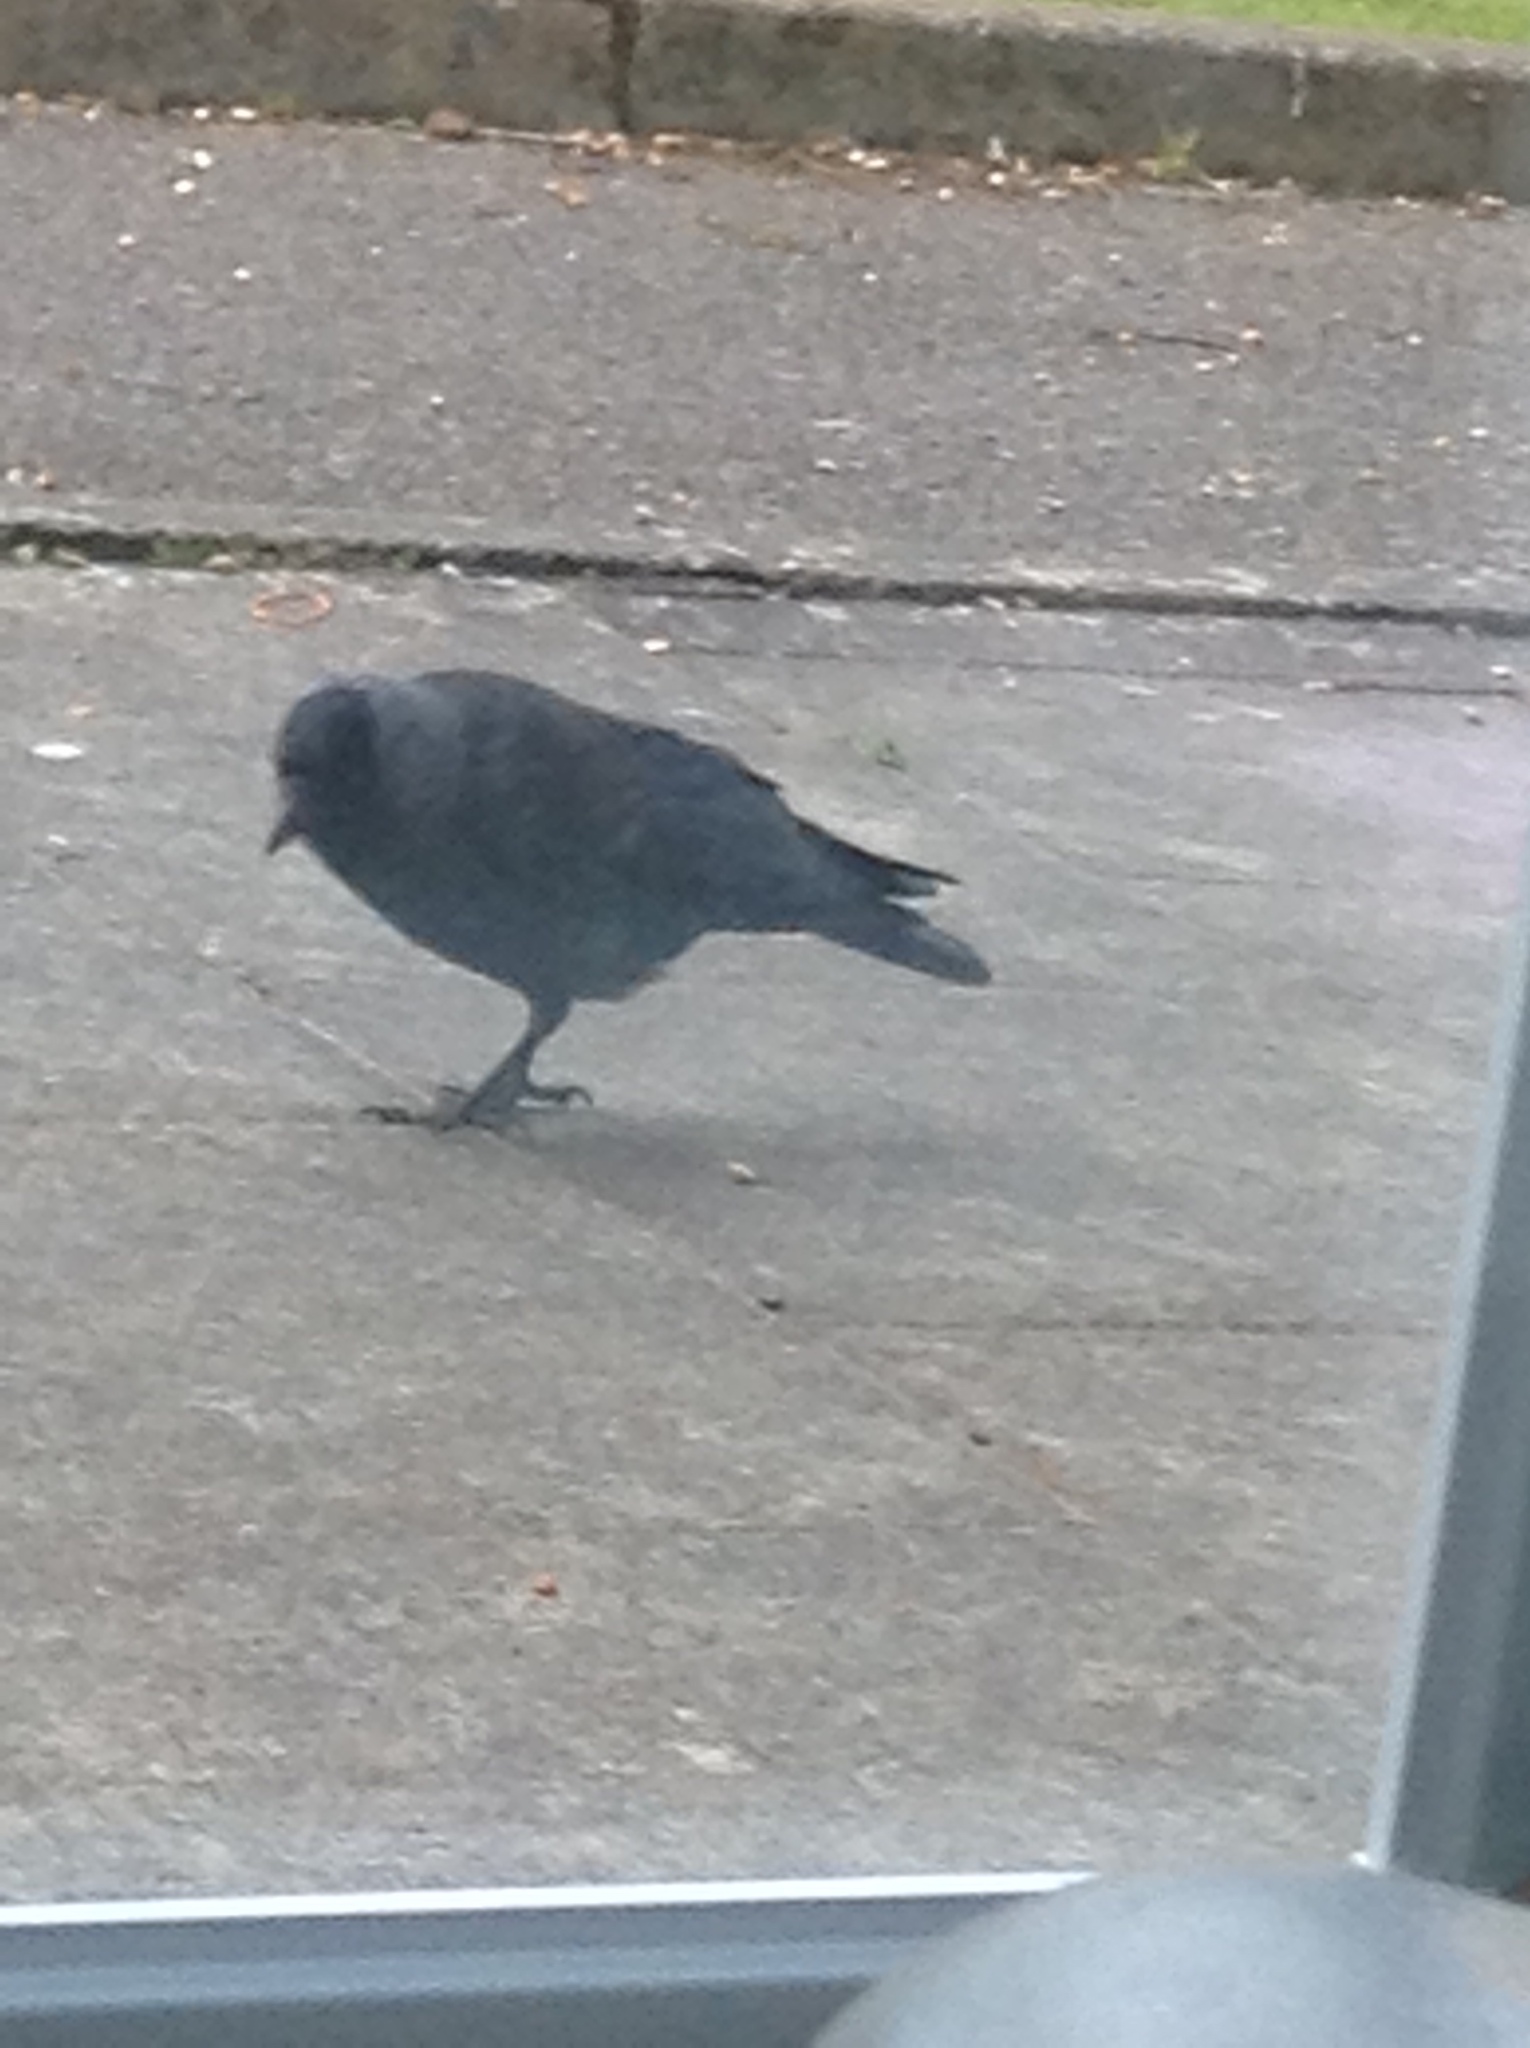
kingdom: Animalia
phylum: Chordata
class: Aves
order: Passeriformes
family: Corvidae
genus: Coloeus
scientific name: Coloeus monedula
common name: Western jackdaw
